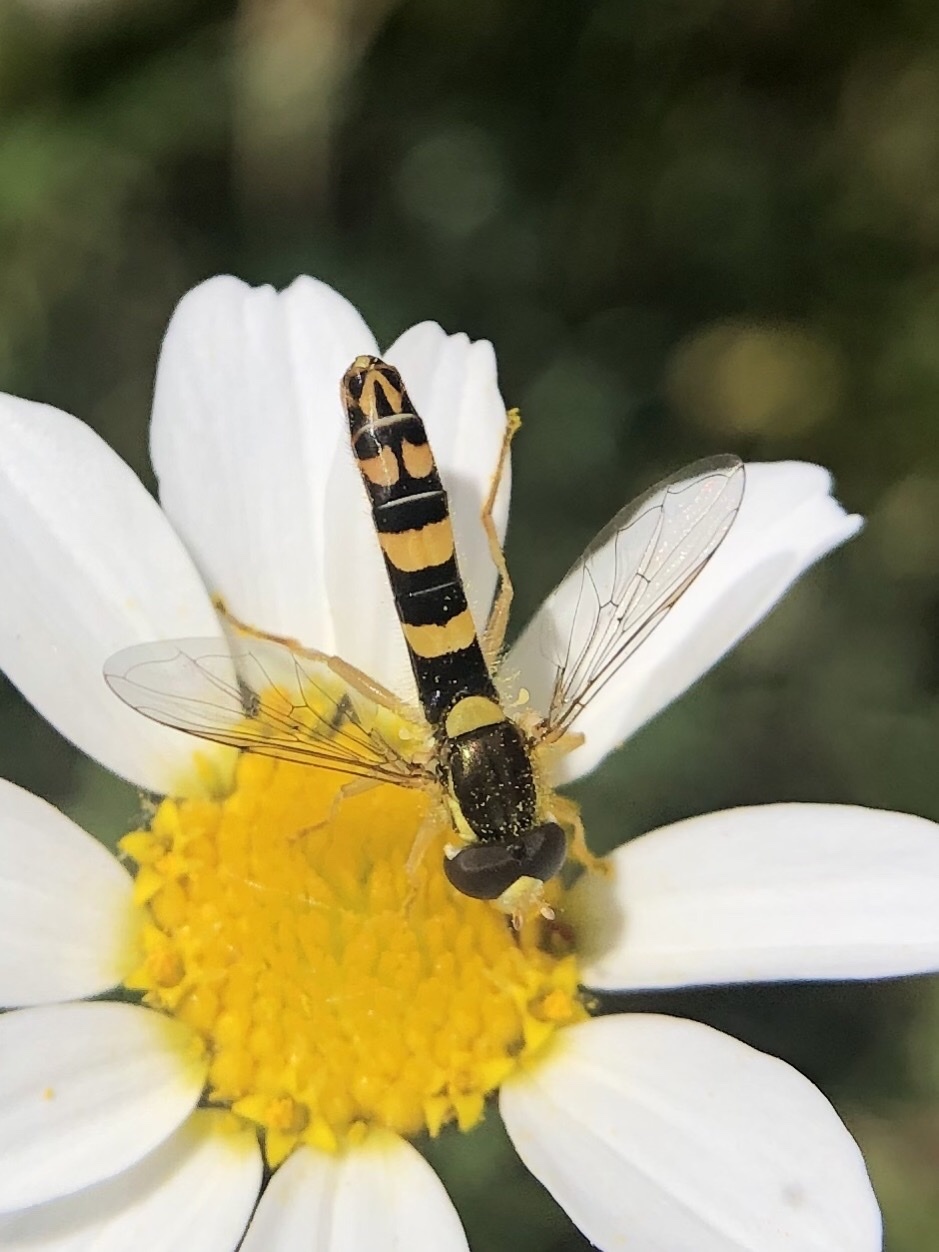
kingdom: Animalia
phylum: Arthropoda
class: Insecta
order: Diptera
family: Syrphidae
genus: Sphaerophoria
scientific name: Sphaerophoria scripta
